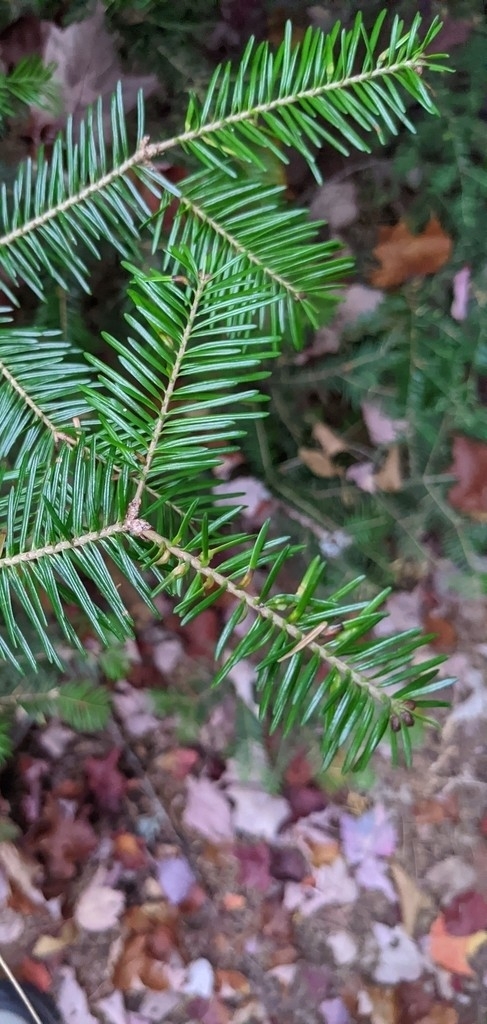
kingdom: Animalia
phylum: Arthropoda
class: Insecta
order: Diptera
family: Cecidomyiidae
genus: Paradiplosis
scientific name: Paradiplosis tumifex
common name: Gall midge
